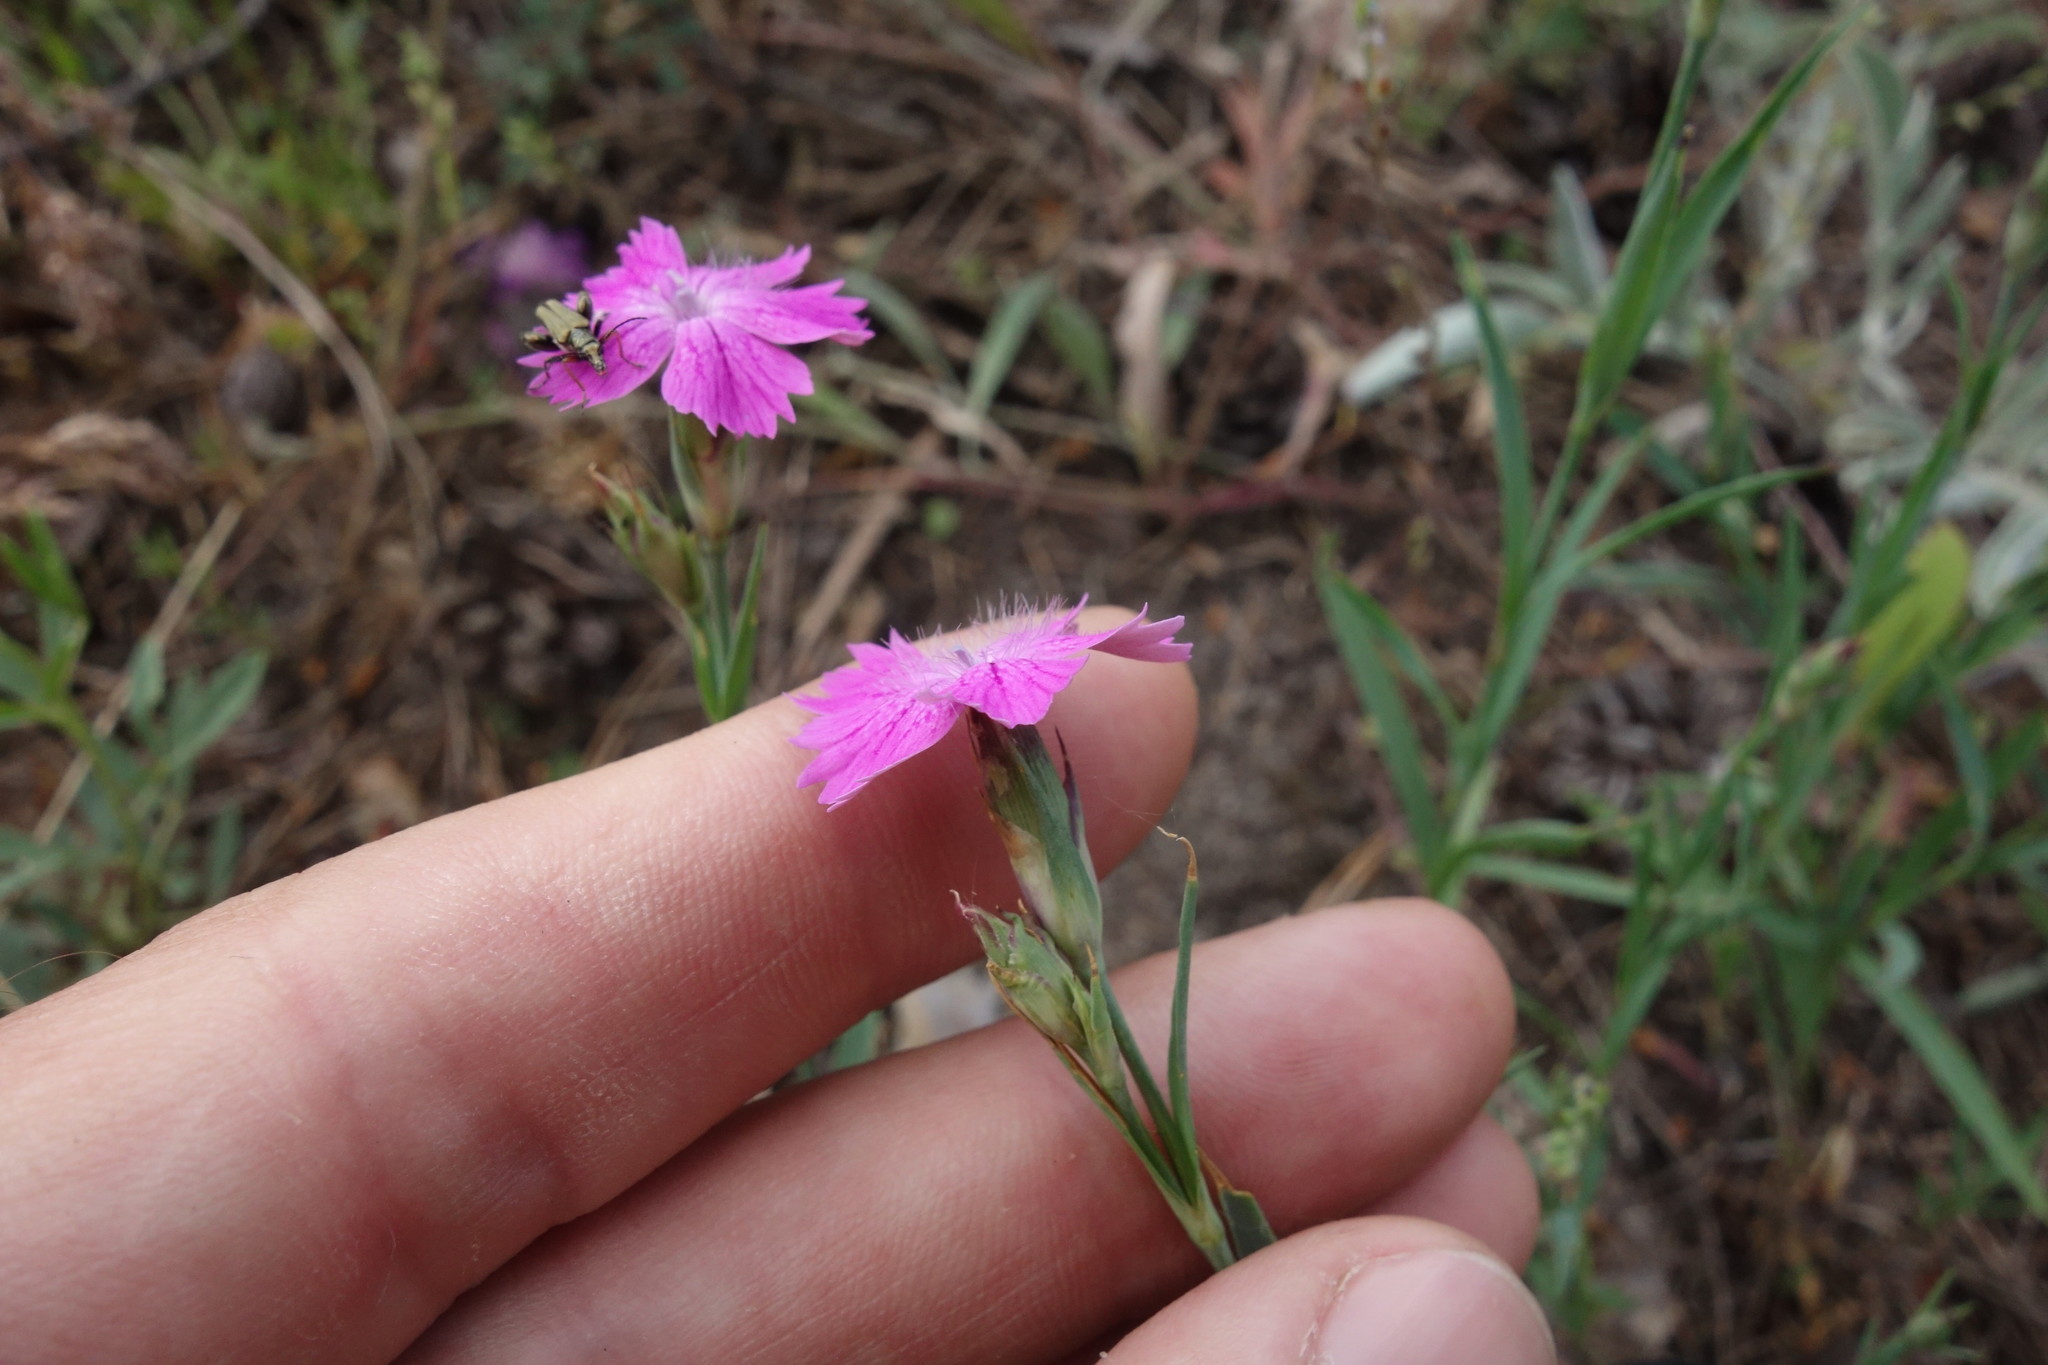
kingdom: Plantae
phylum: Tracheophyta
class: Magnoliopsida
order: Caryophyllales
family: Caryophyllaceae
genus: Dianthus
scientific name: Dianthus chinensis
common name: Rainbow pink
